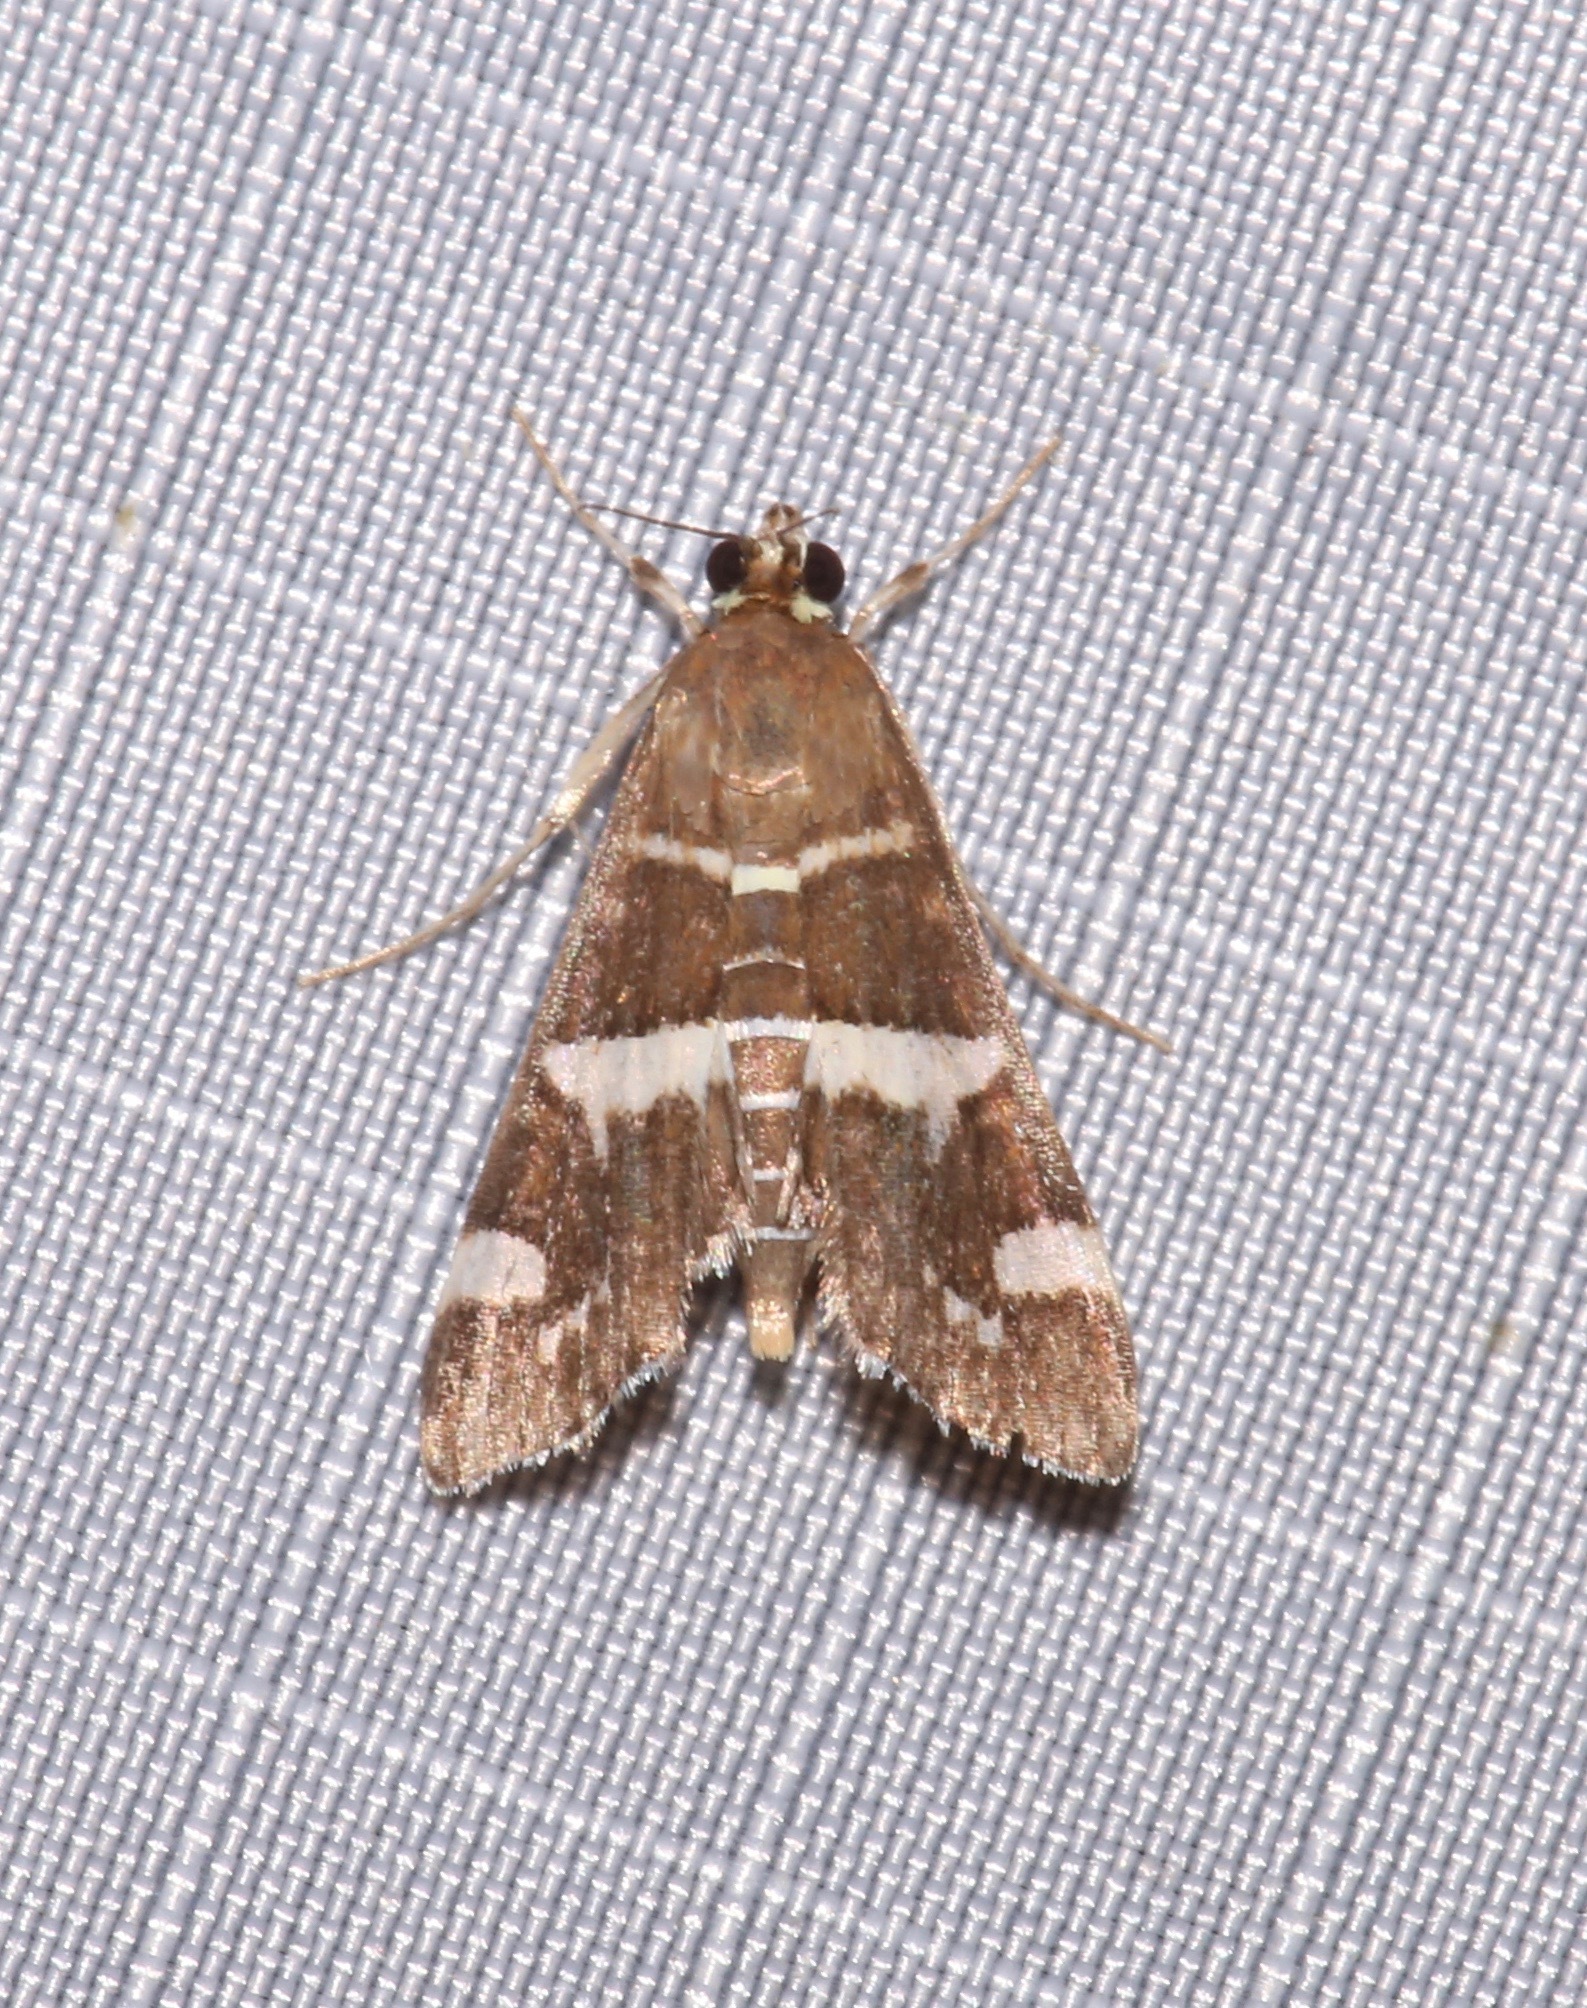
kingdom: Animalia
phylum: Arthropoda
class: Insecta
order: Lepidoptera
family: Crambidae
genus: Spoladea
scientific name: Spoladea recurvalis
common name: Beet webworm moth
